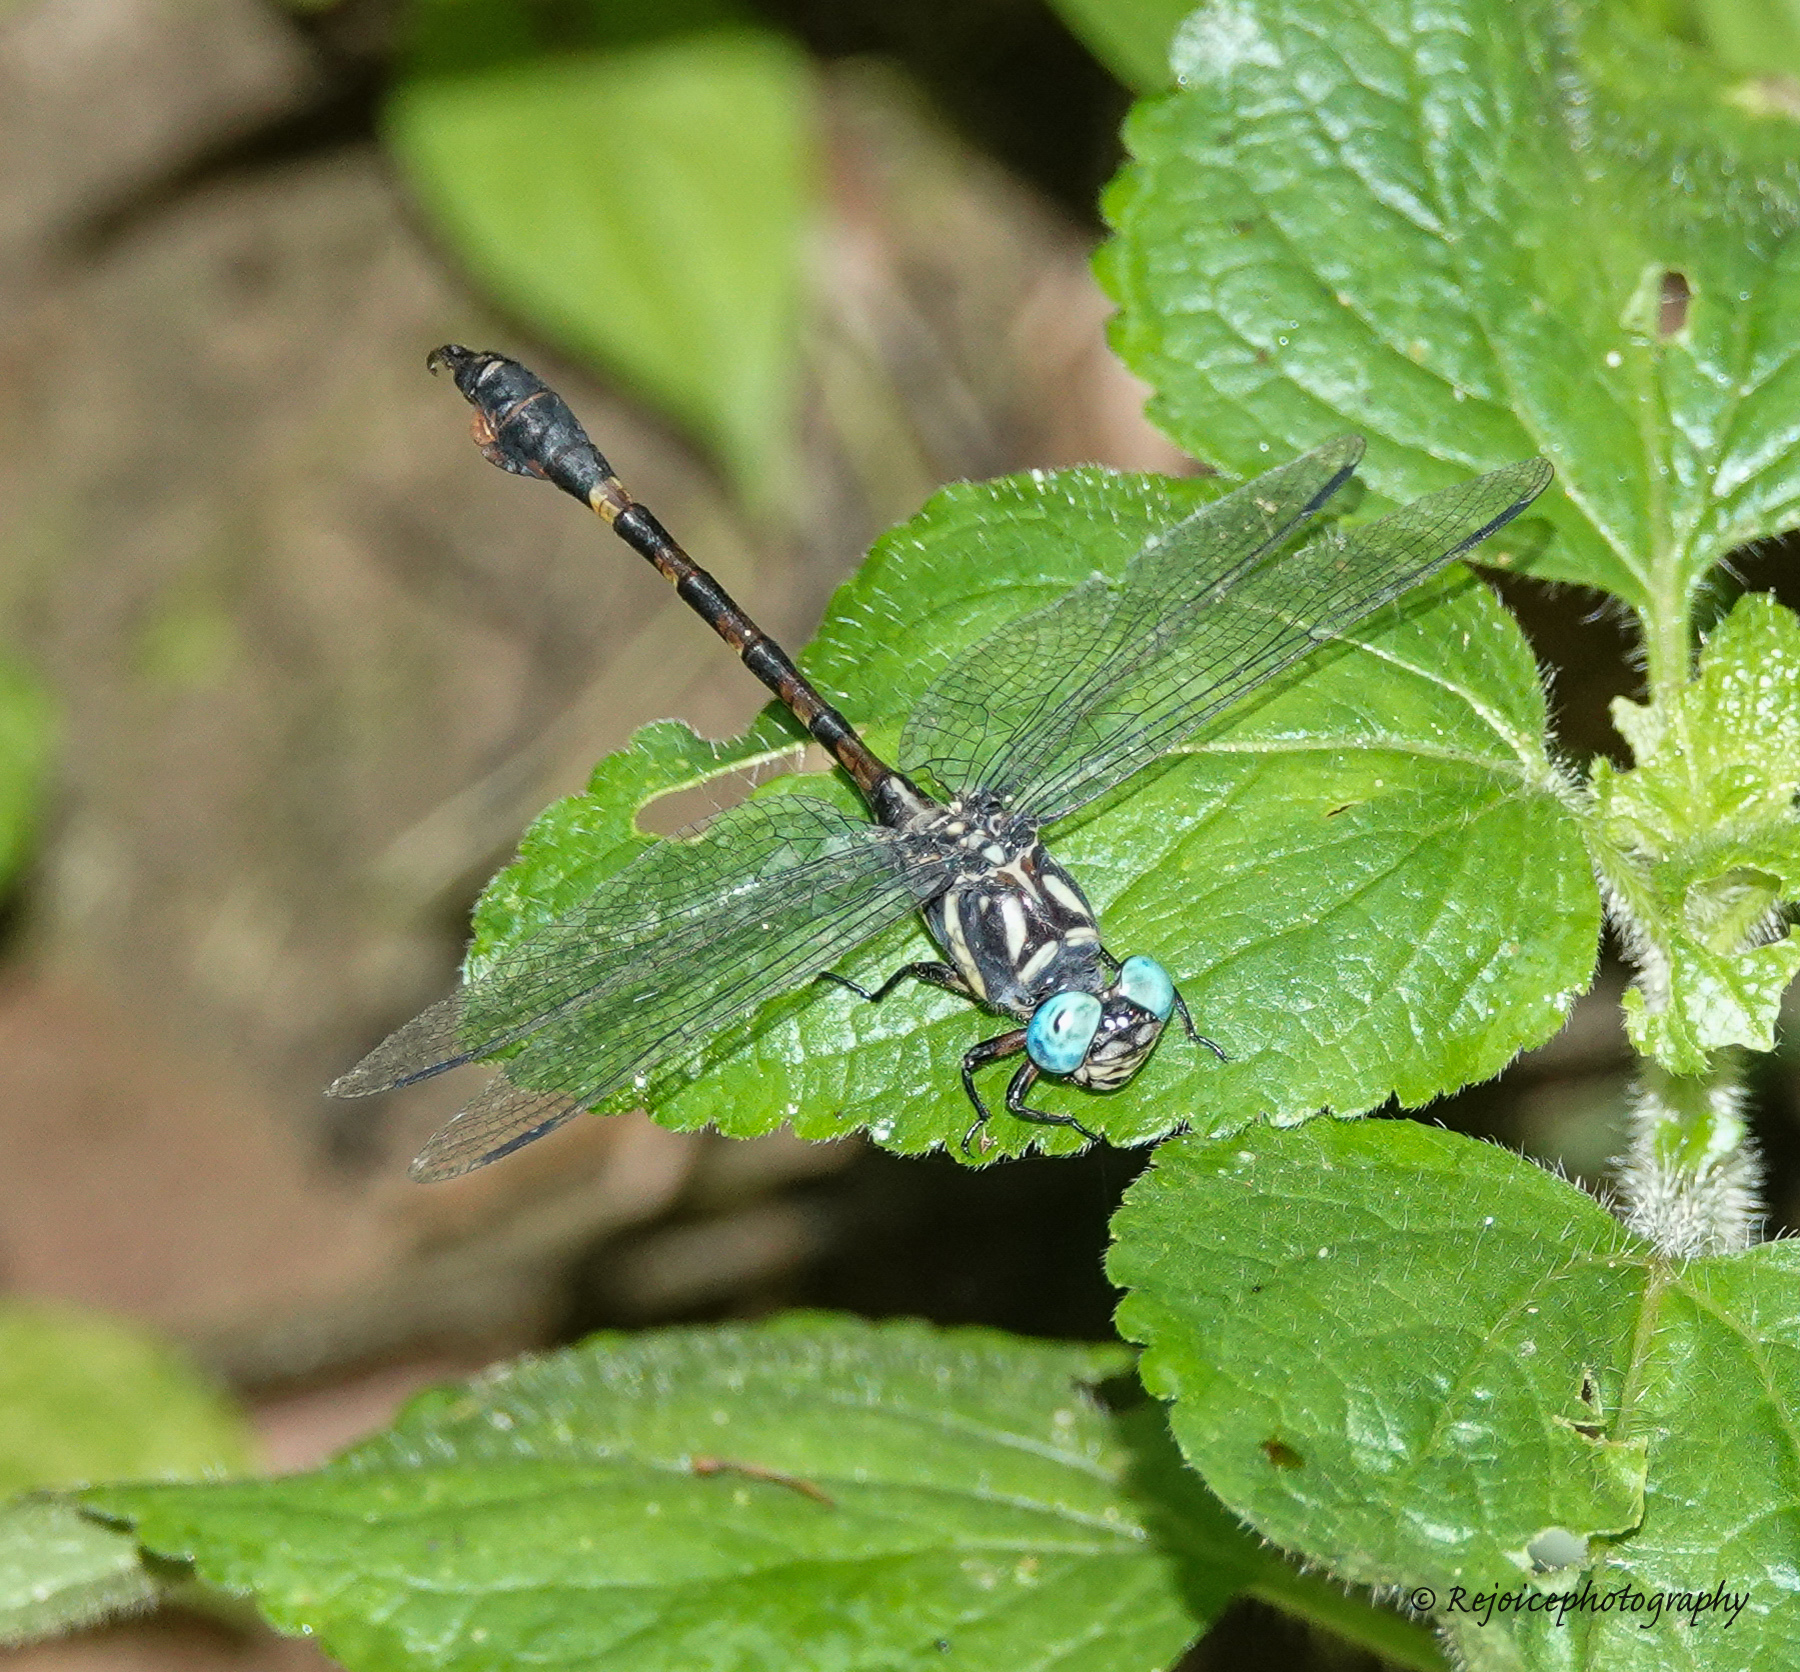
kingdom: Animalia
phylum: Arthropoda
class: Insecta
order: Odonata
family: Gomphidae
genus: Paragomphus
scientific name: Paragomphus echinoccipitalis
